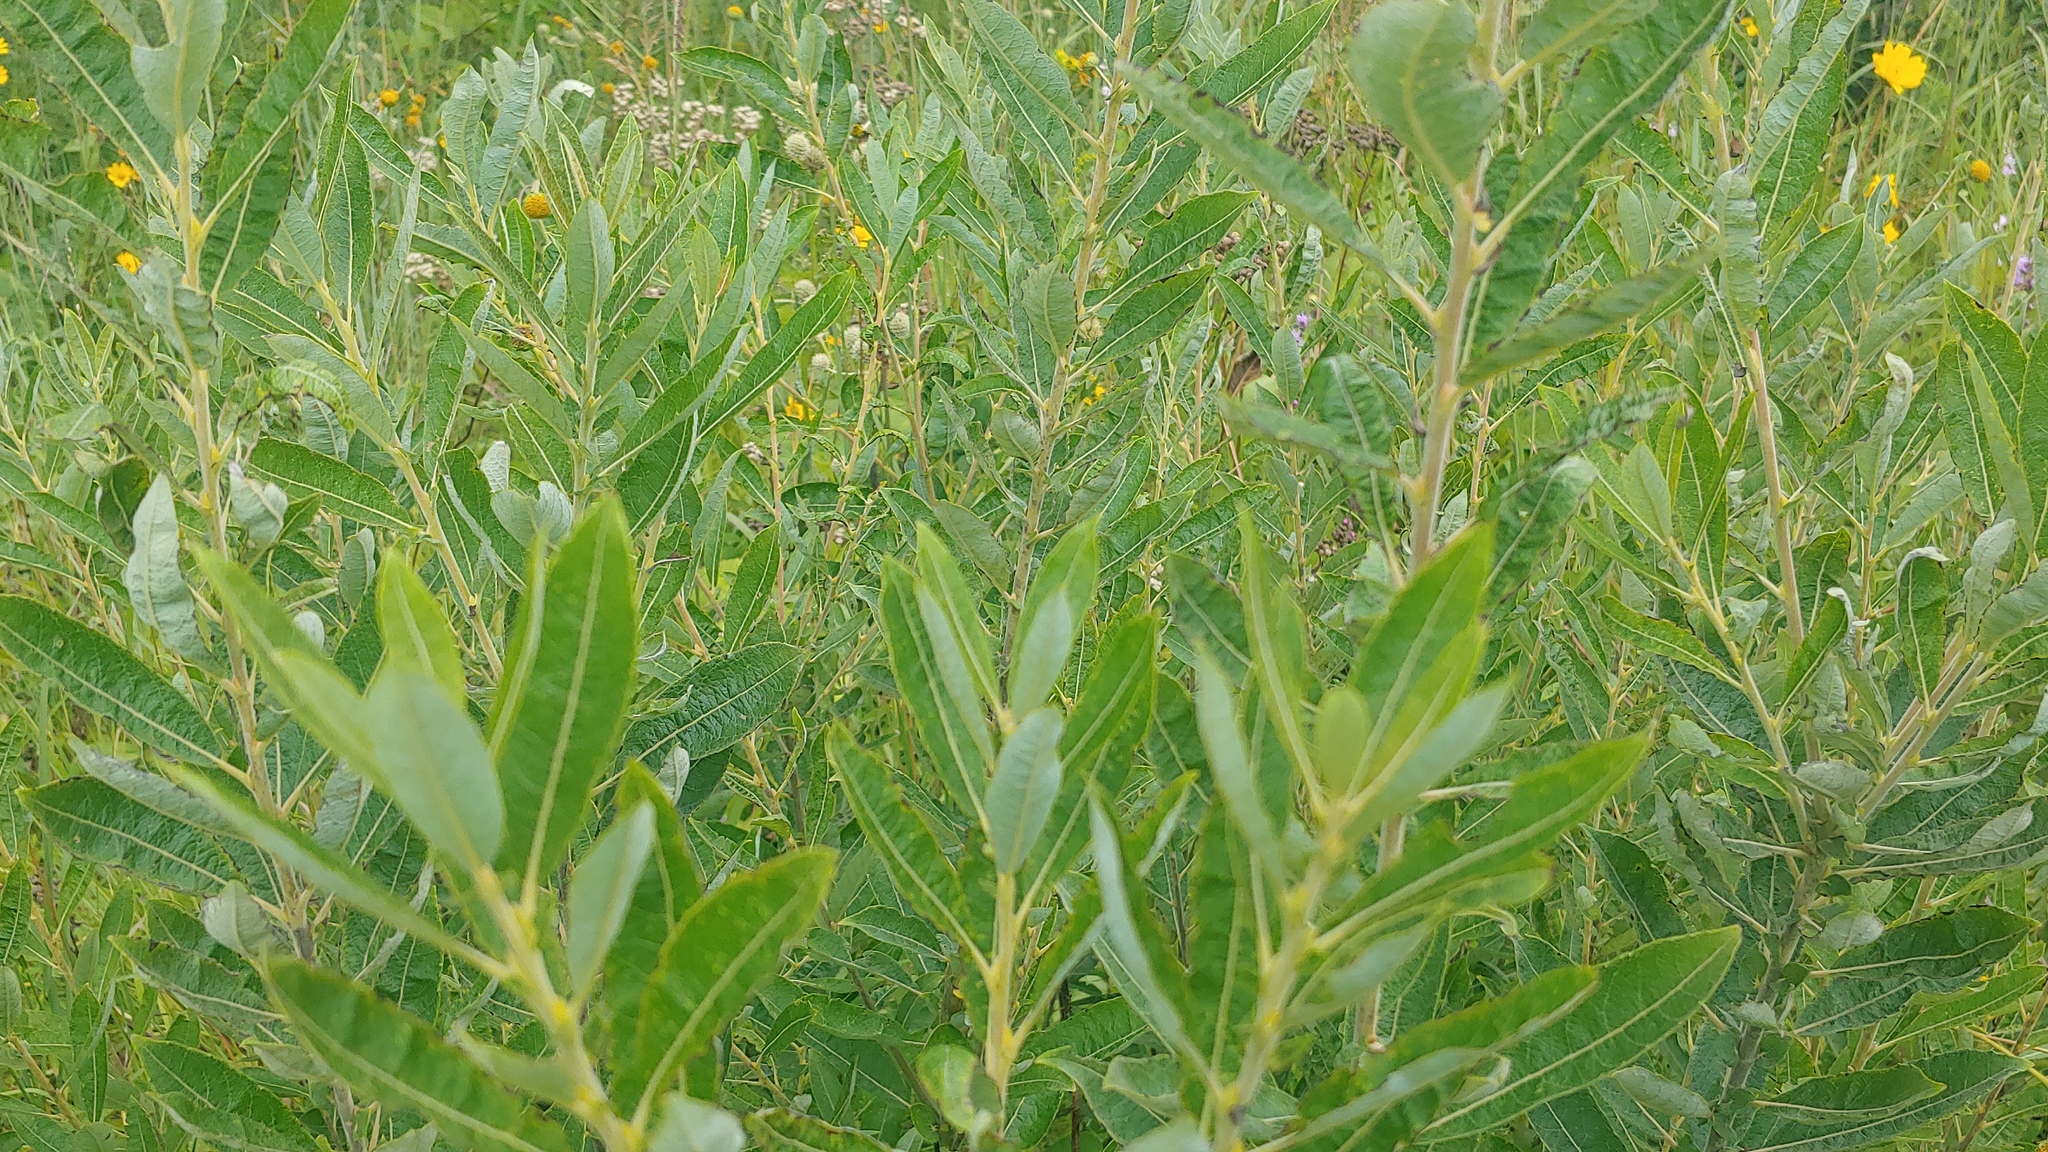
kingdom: Plantae
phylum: Tracheophyta
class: Magnoliopsida
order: Malpighiales
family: Salicaceae
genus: Salix
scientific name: Salix humilis
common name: Prairie willow
